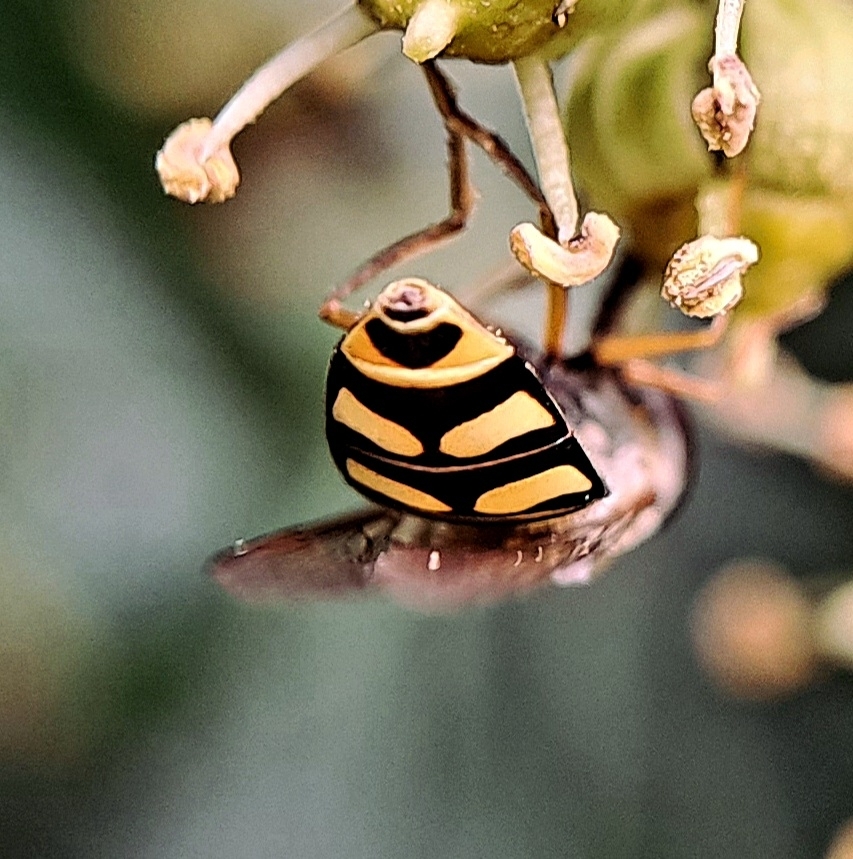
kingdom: Animalia
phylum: Arthropoda
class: Insecta
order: Diptera
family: Syrphidae
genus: Eupeodes
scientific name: Eupeodes
